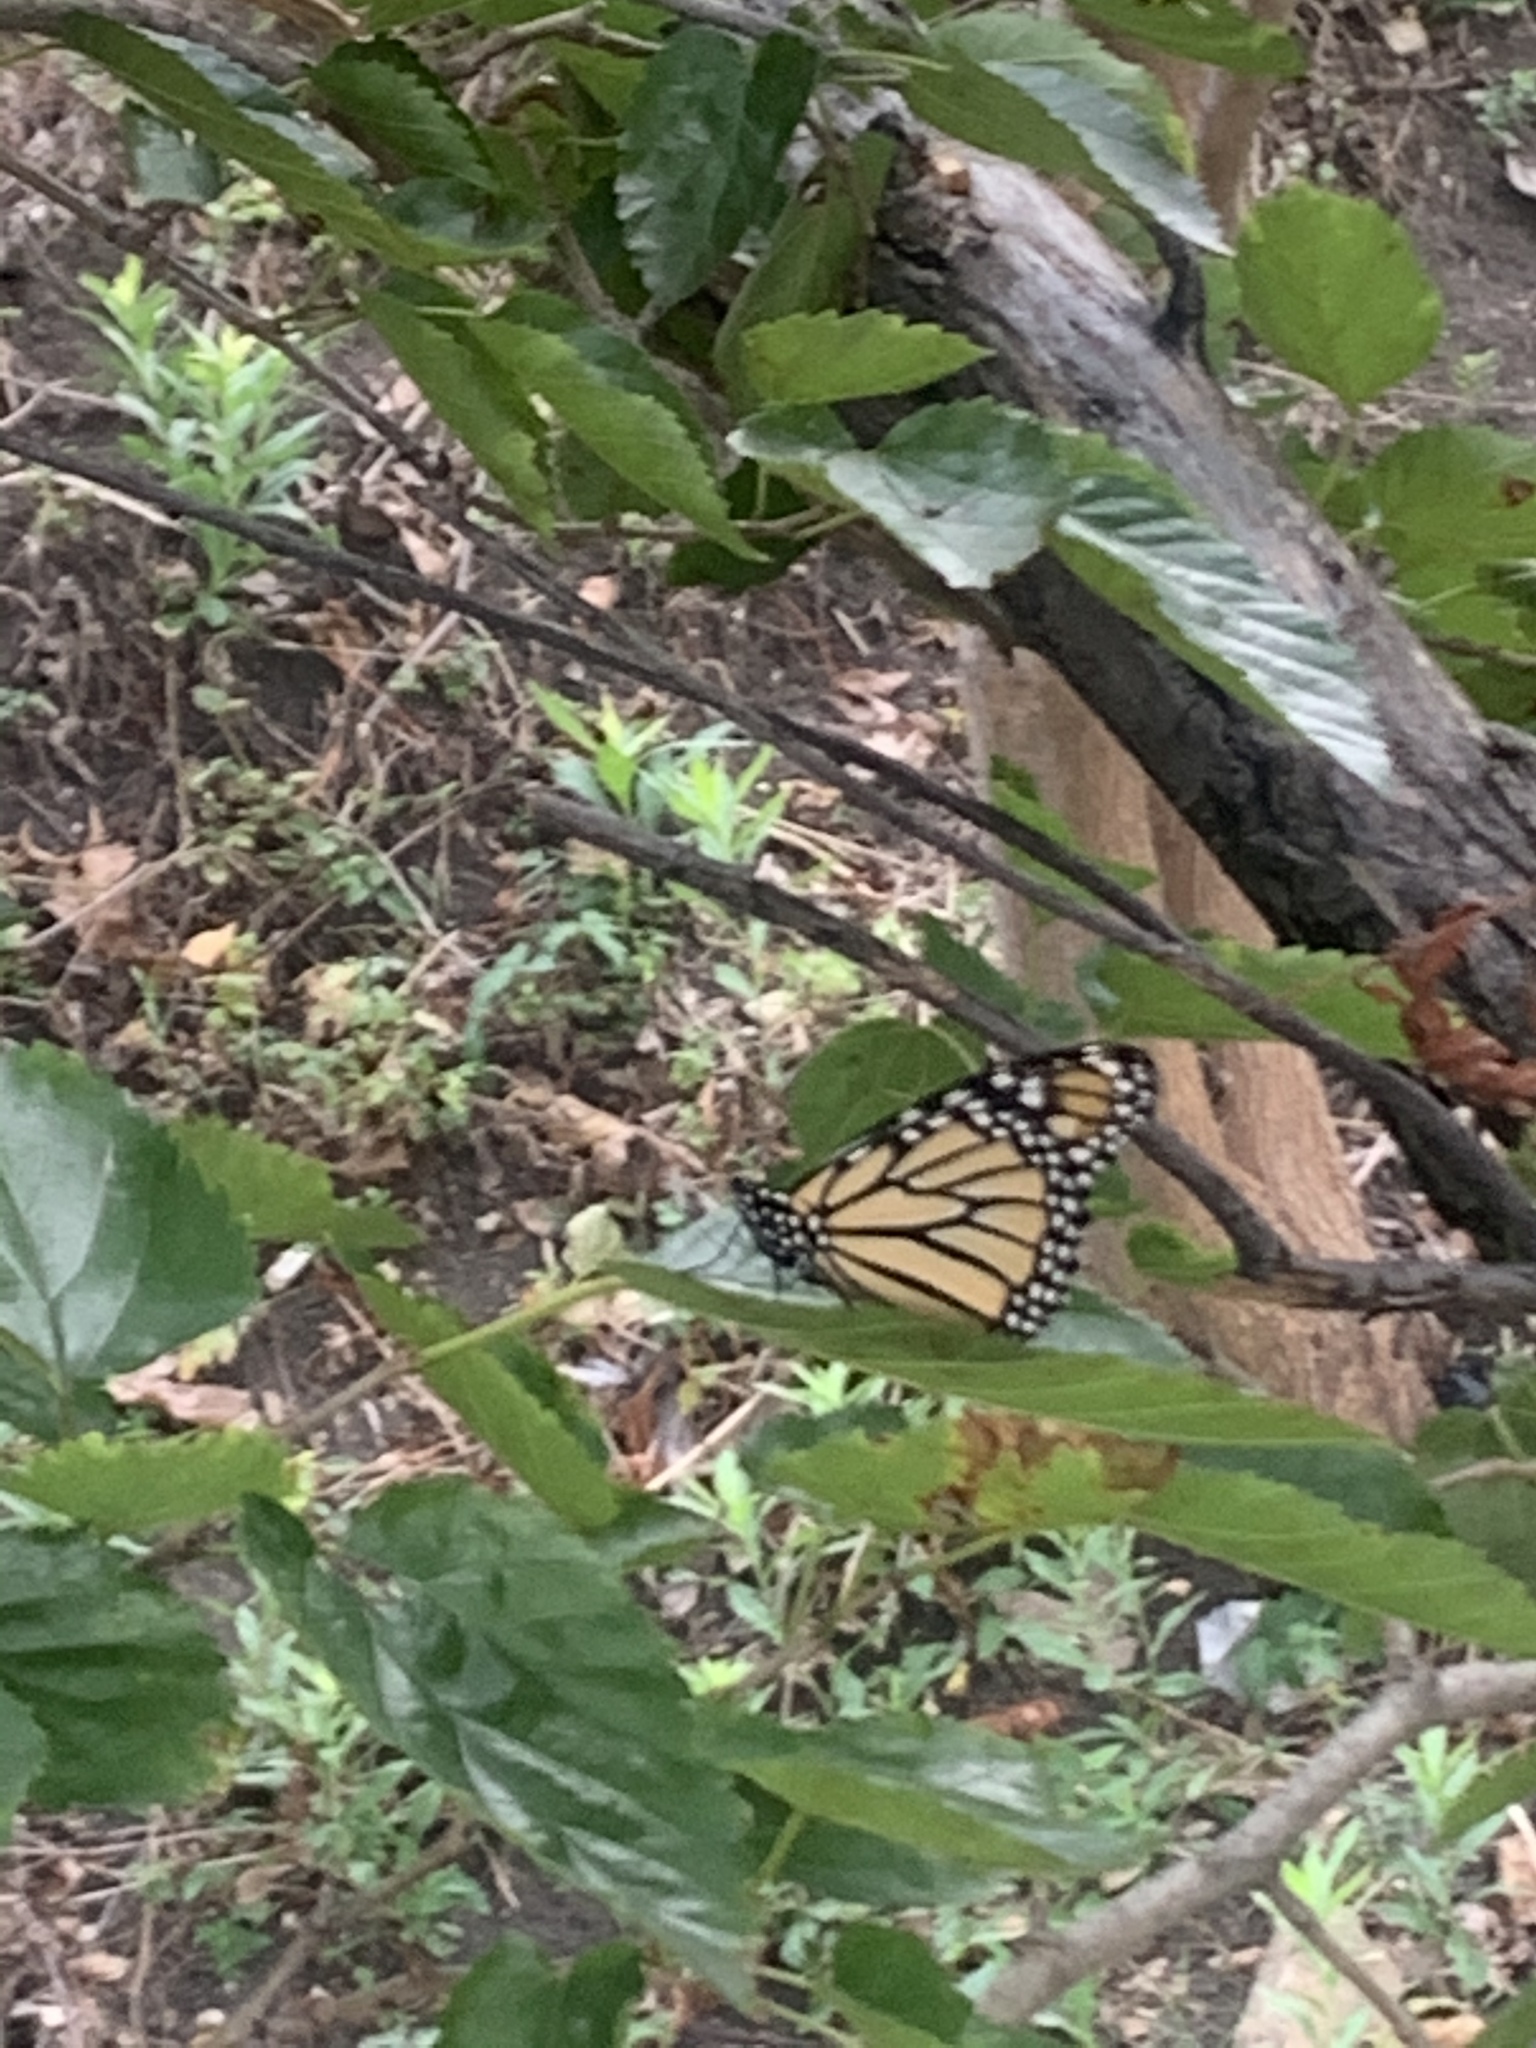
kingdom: Animalia
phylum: Arthropoda
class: Insecta
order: Lepidoptera
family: Nymphalidae
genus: Danaus
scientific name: Danaus plexippus
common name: Monarch
